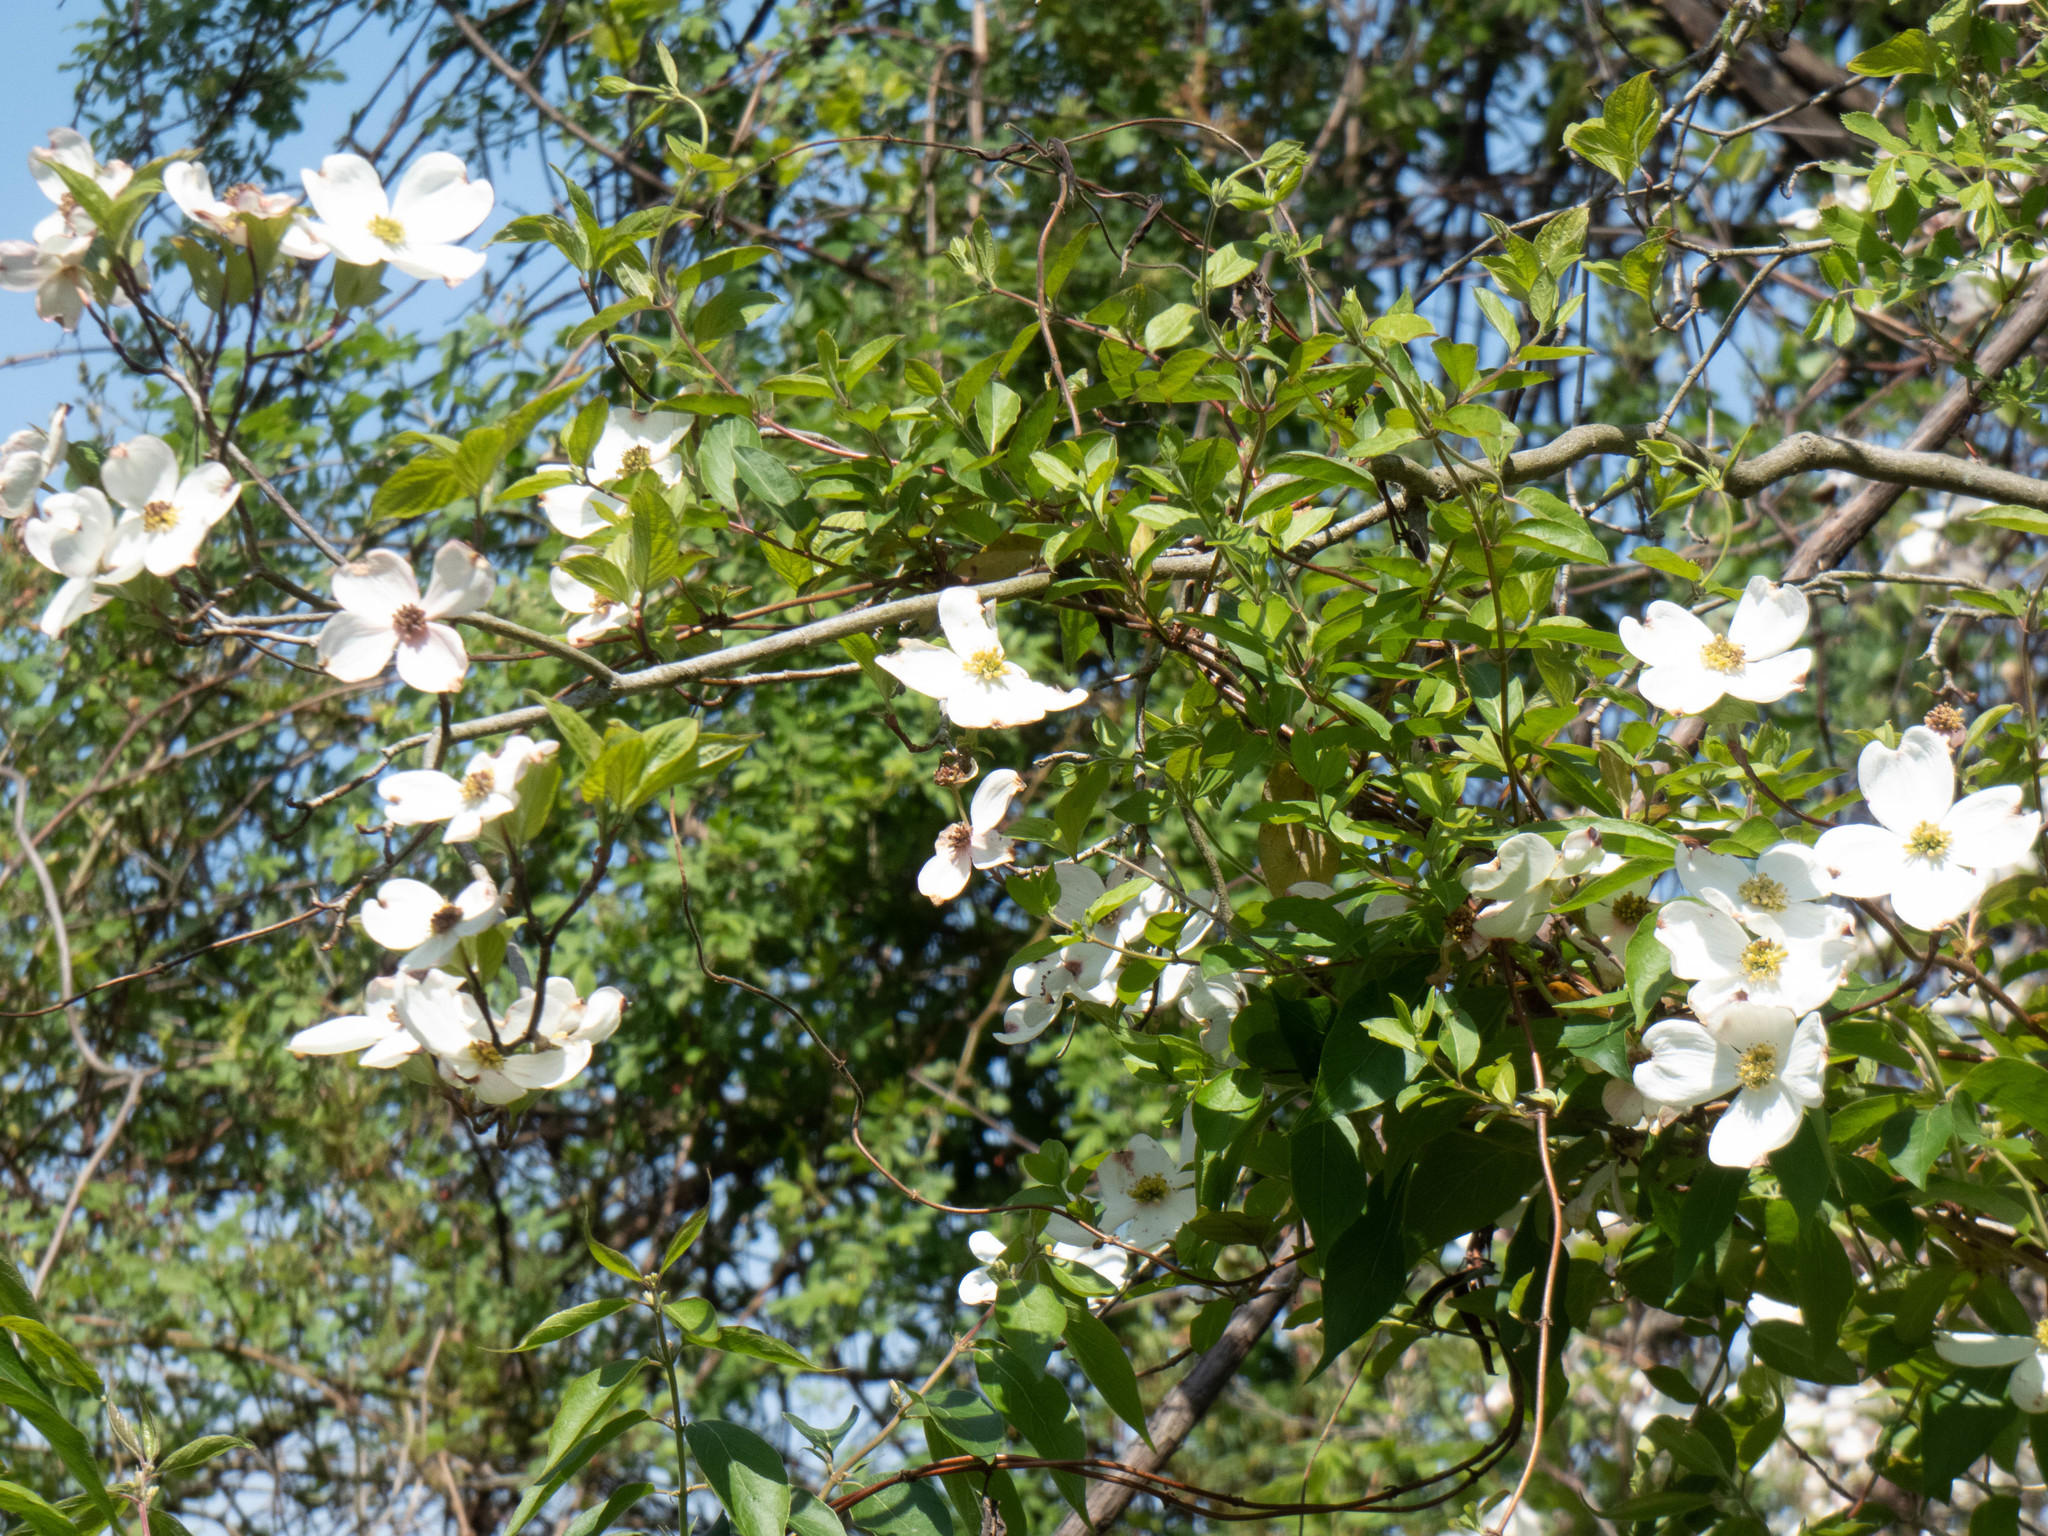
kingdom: Plantae
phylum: Tracheophyta
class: Magnoliopsida
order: Cornales
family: Cornaceae
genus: Cornus
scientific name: Cornus florida
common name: Flowering dogwood
